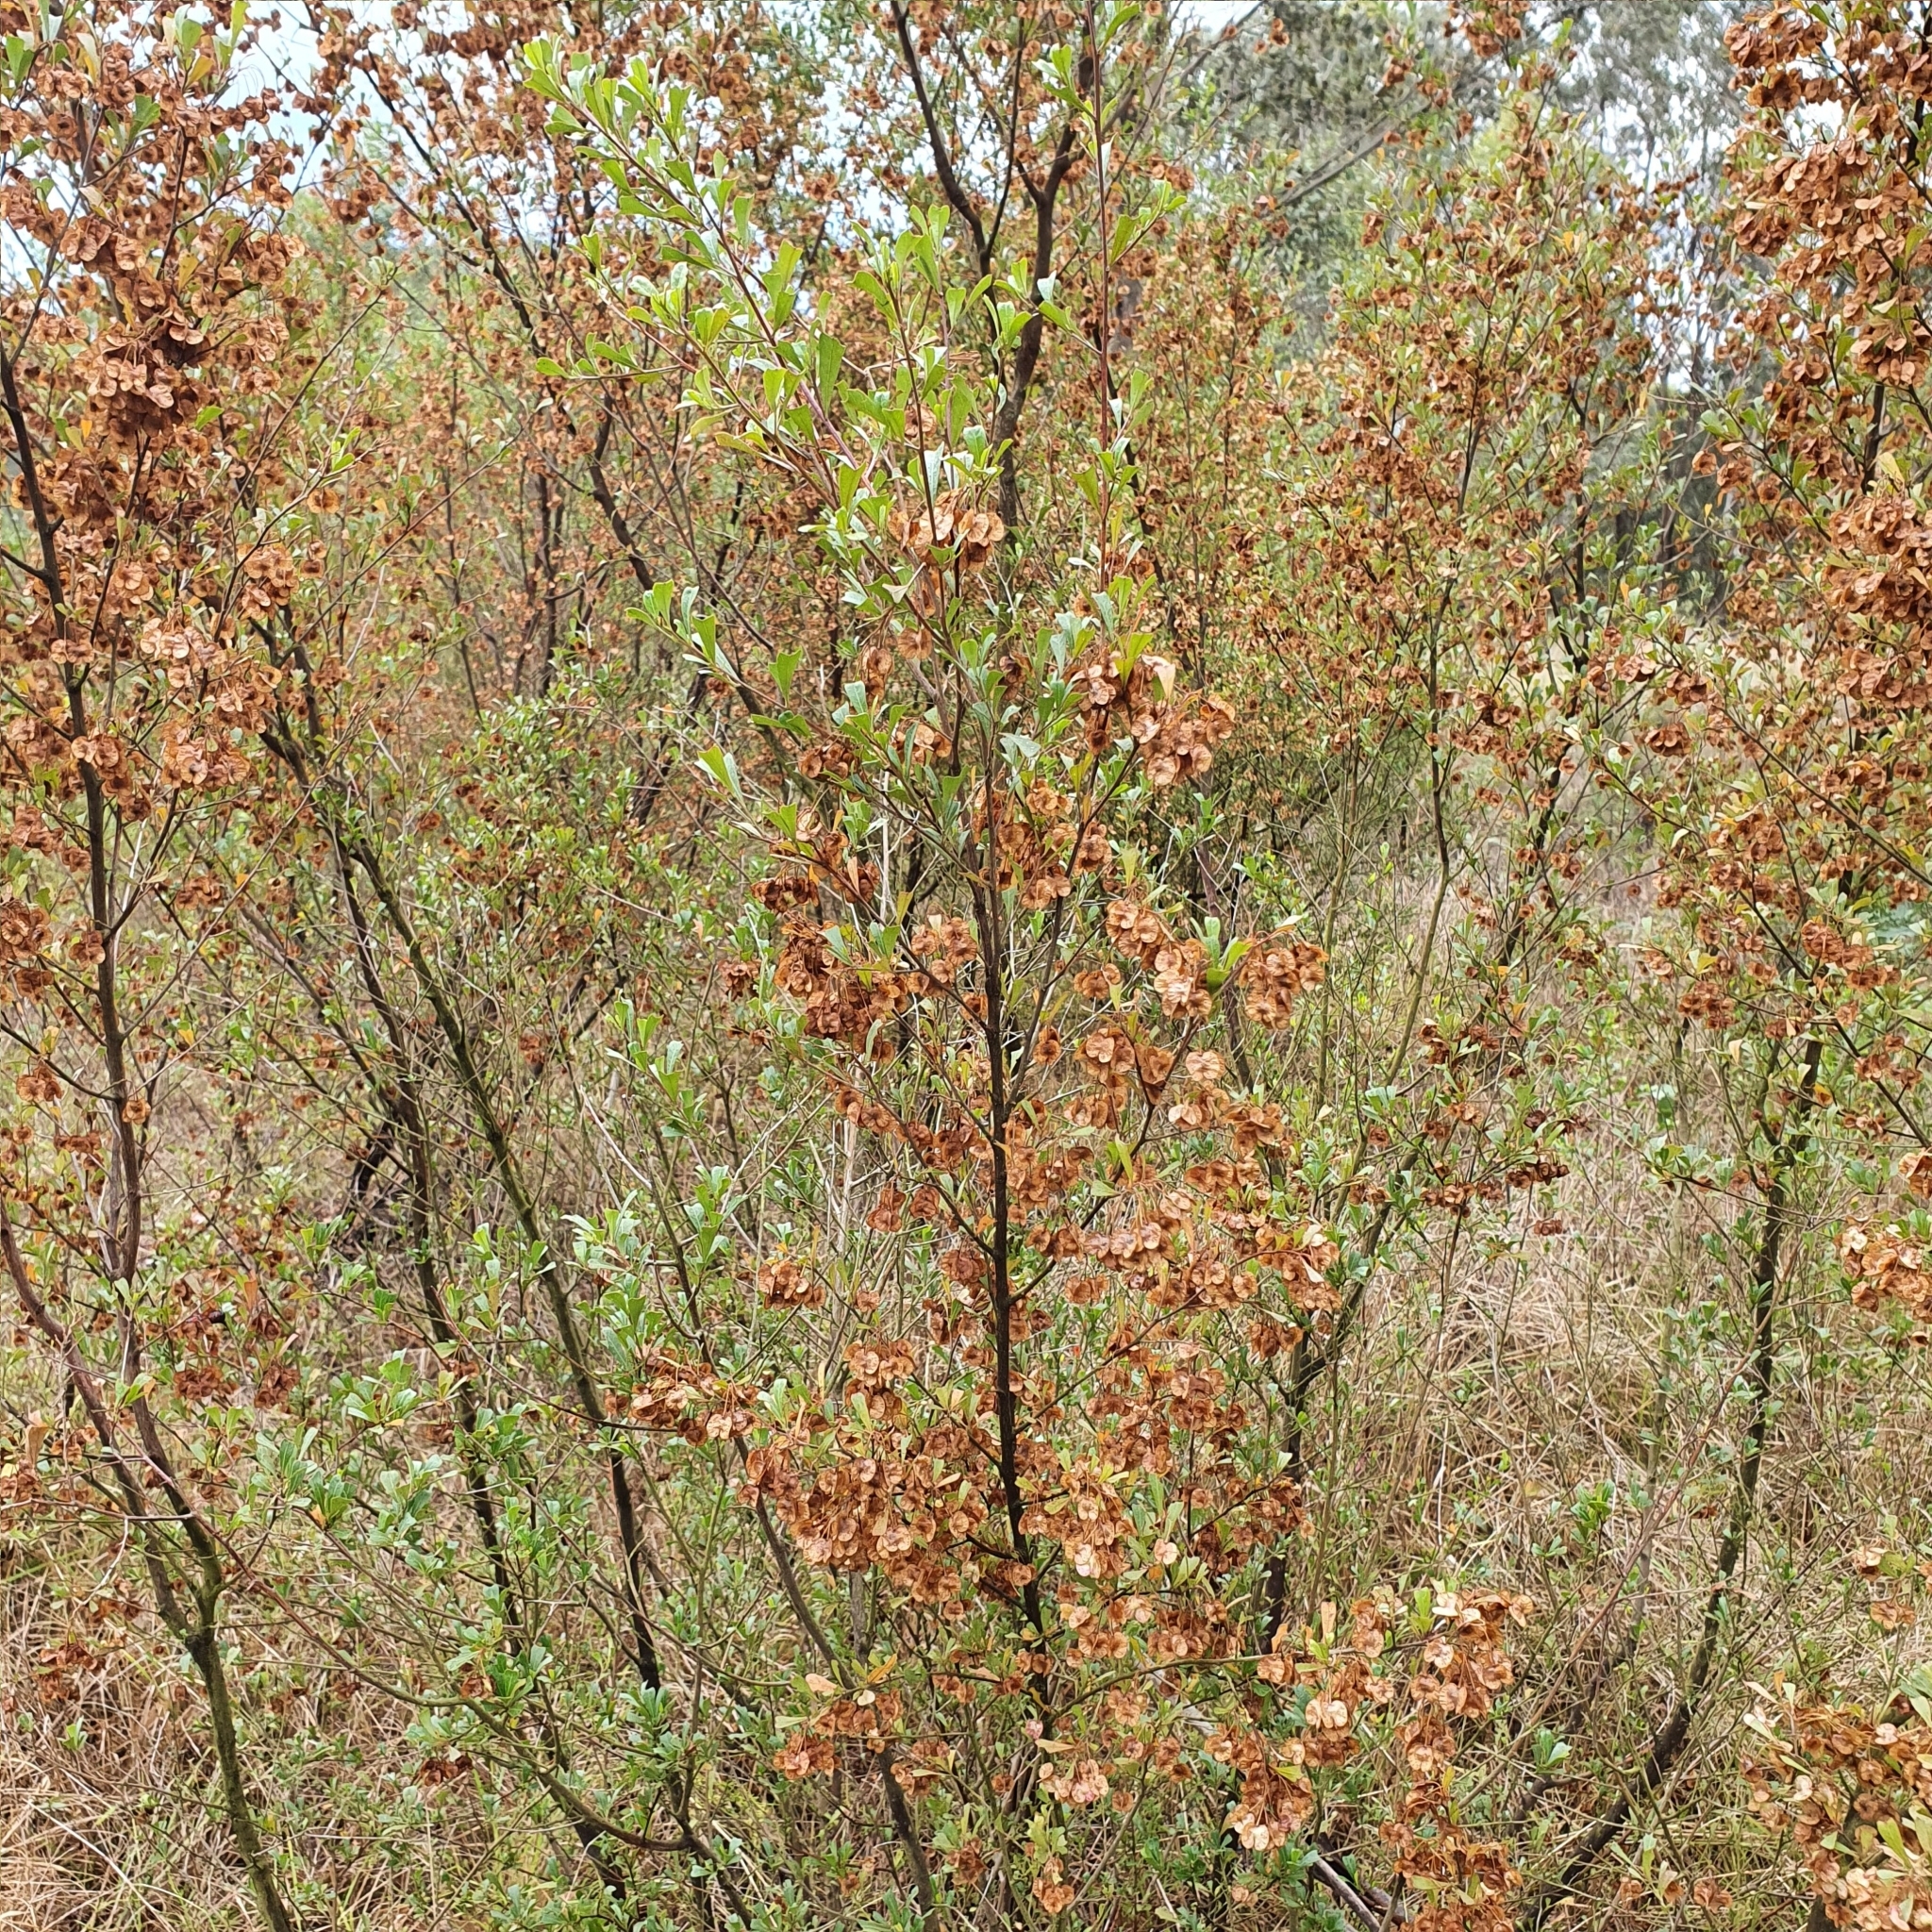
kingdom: Plantae
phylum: Tracheophyta
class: Magnoliopsida
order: Sapindales
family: Sapindaceae
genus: Dodonaea
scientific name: Dodonaea viscosa
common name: Hopbush
